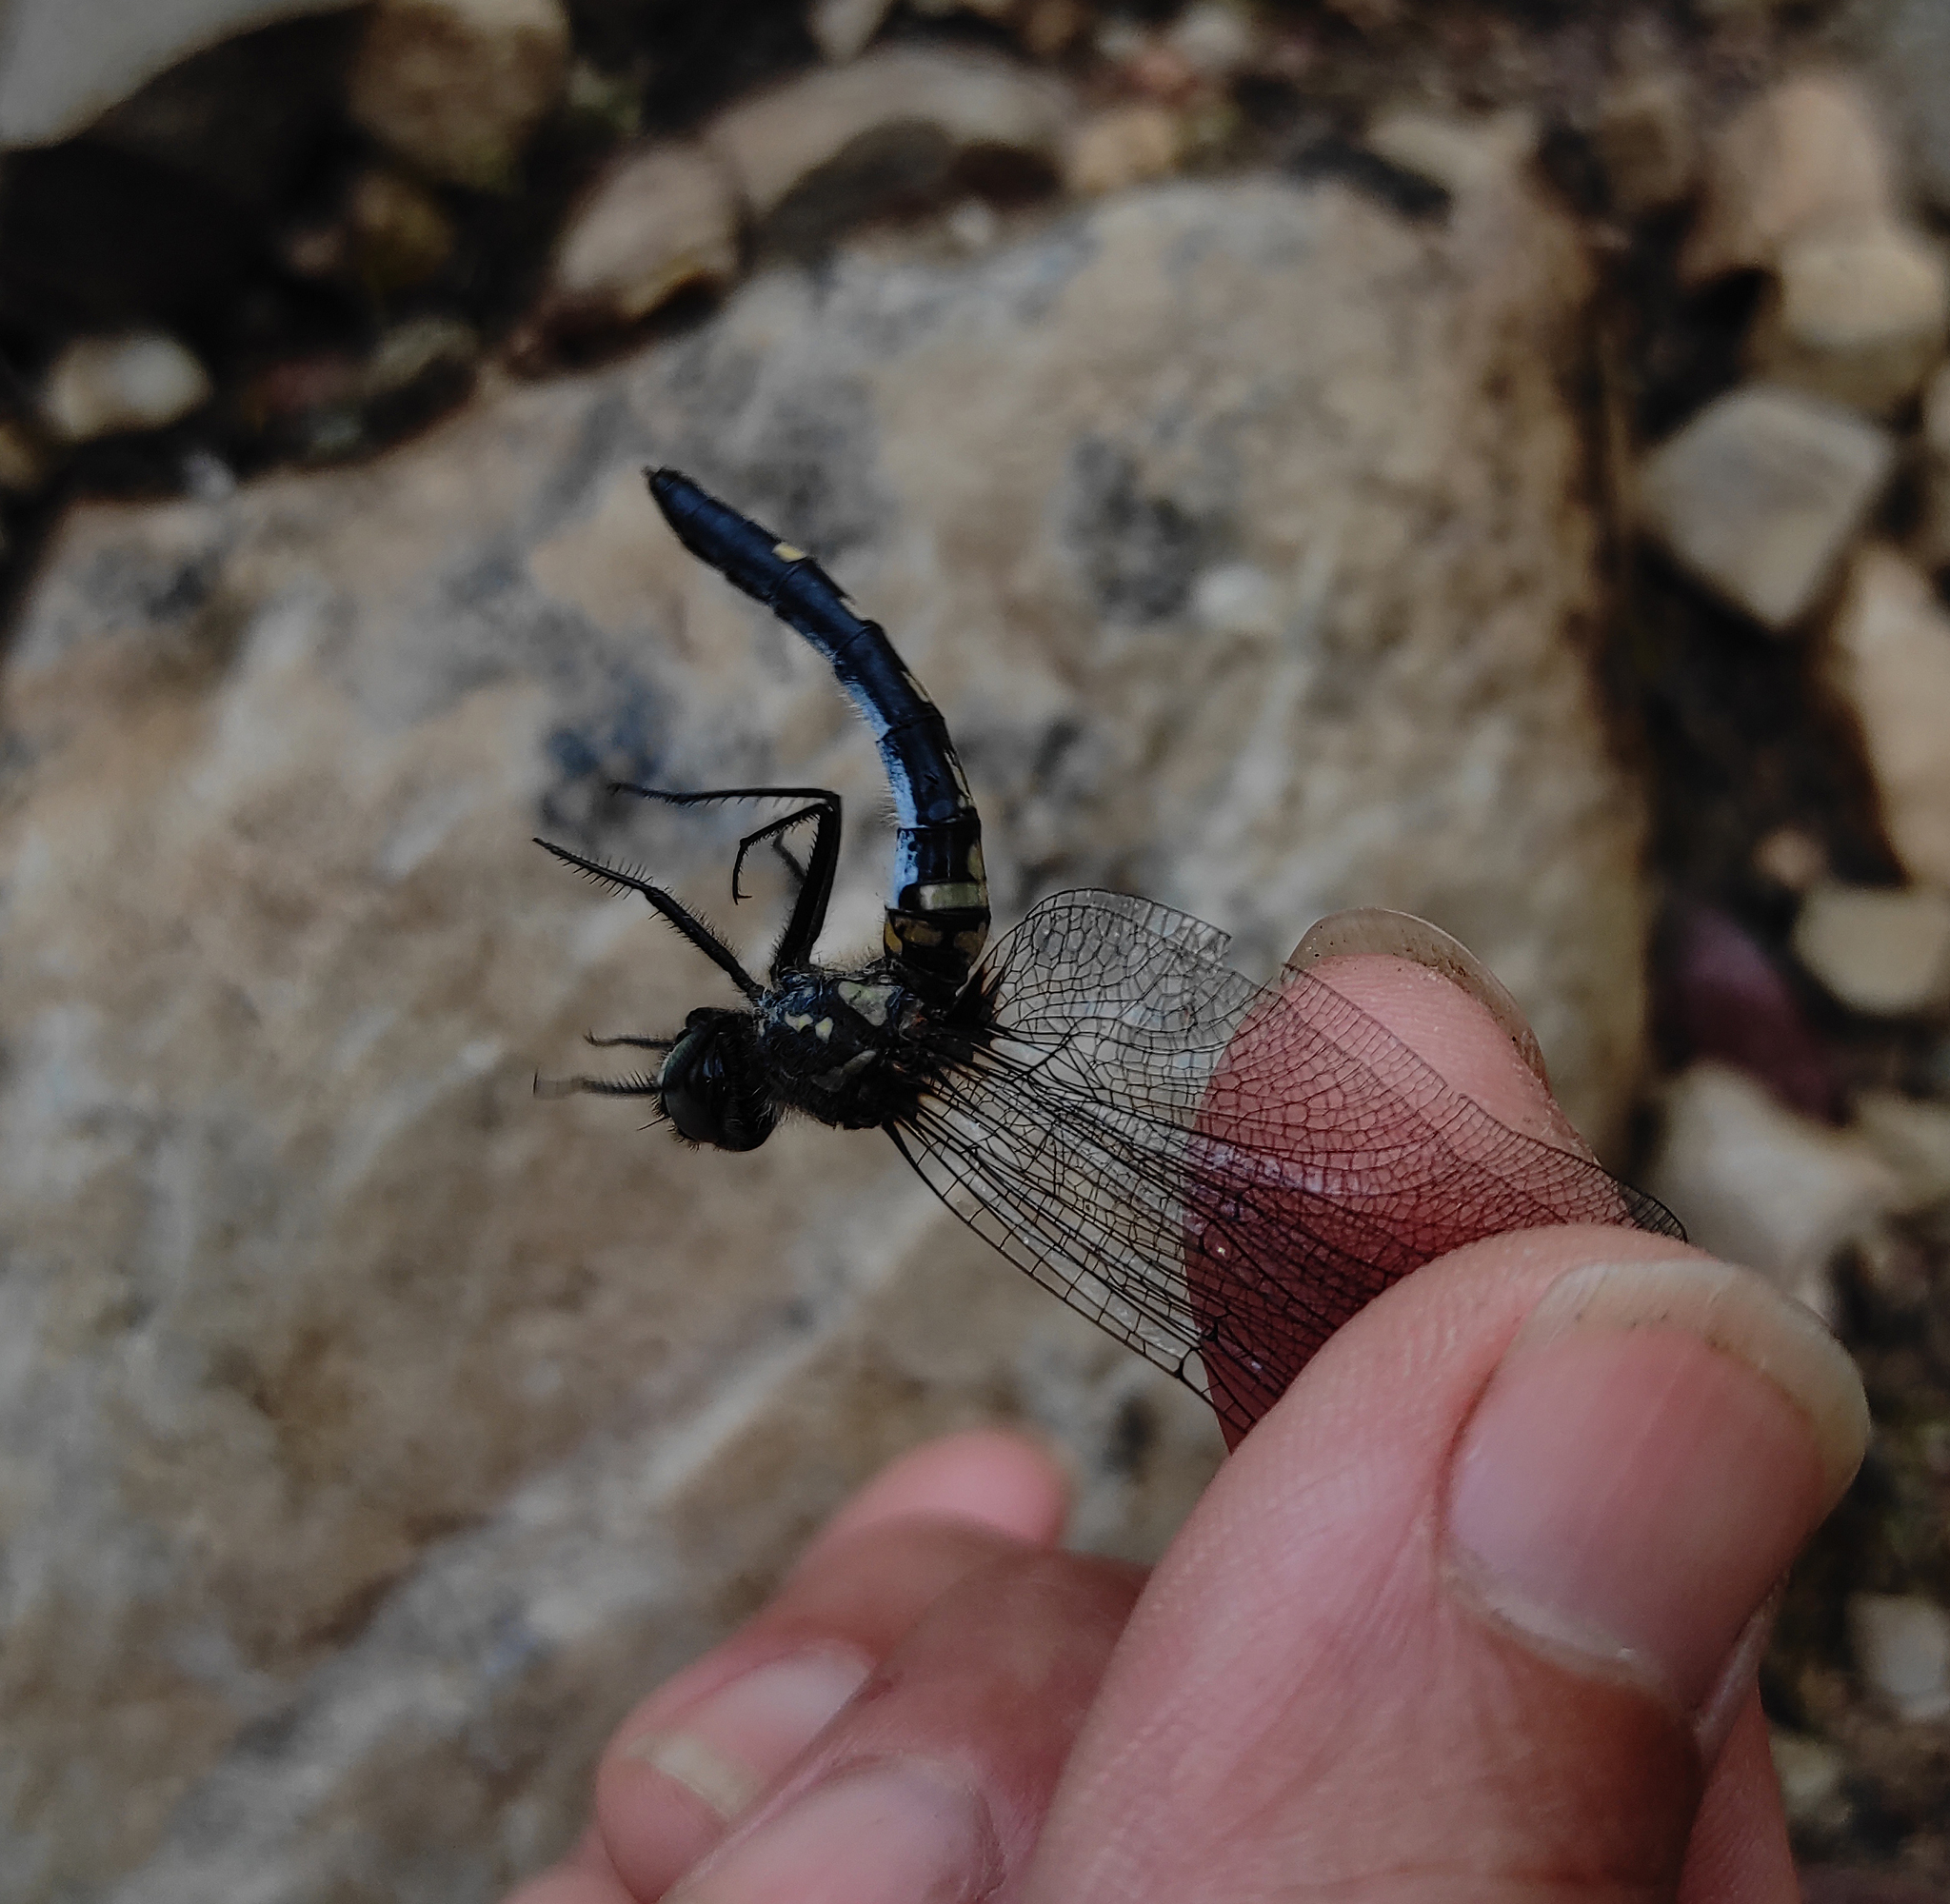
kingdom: Animalia
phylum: Arthropoda
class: Insecta
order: Odonata
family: Libellulidae
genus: Leucorrhinia
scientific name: Leucorrhinia orientalis
